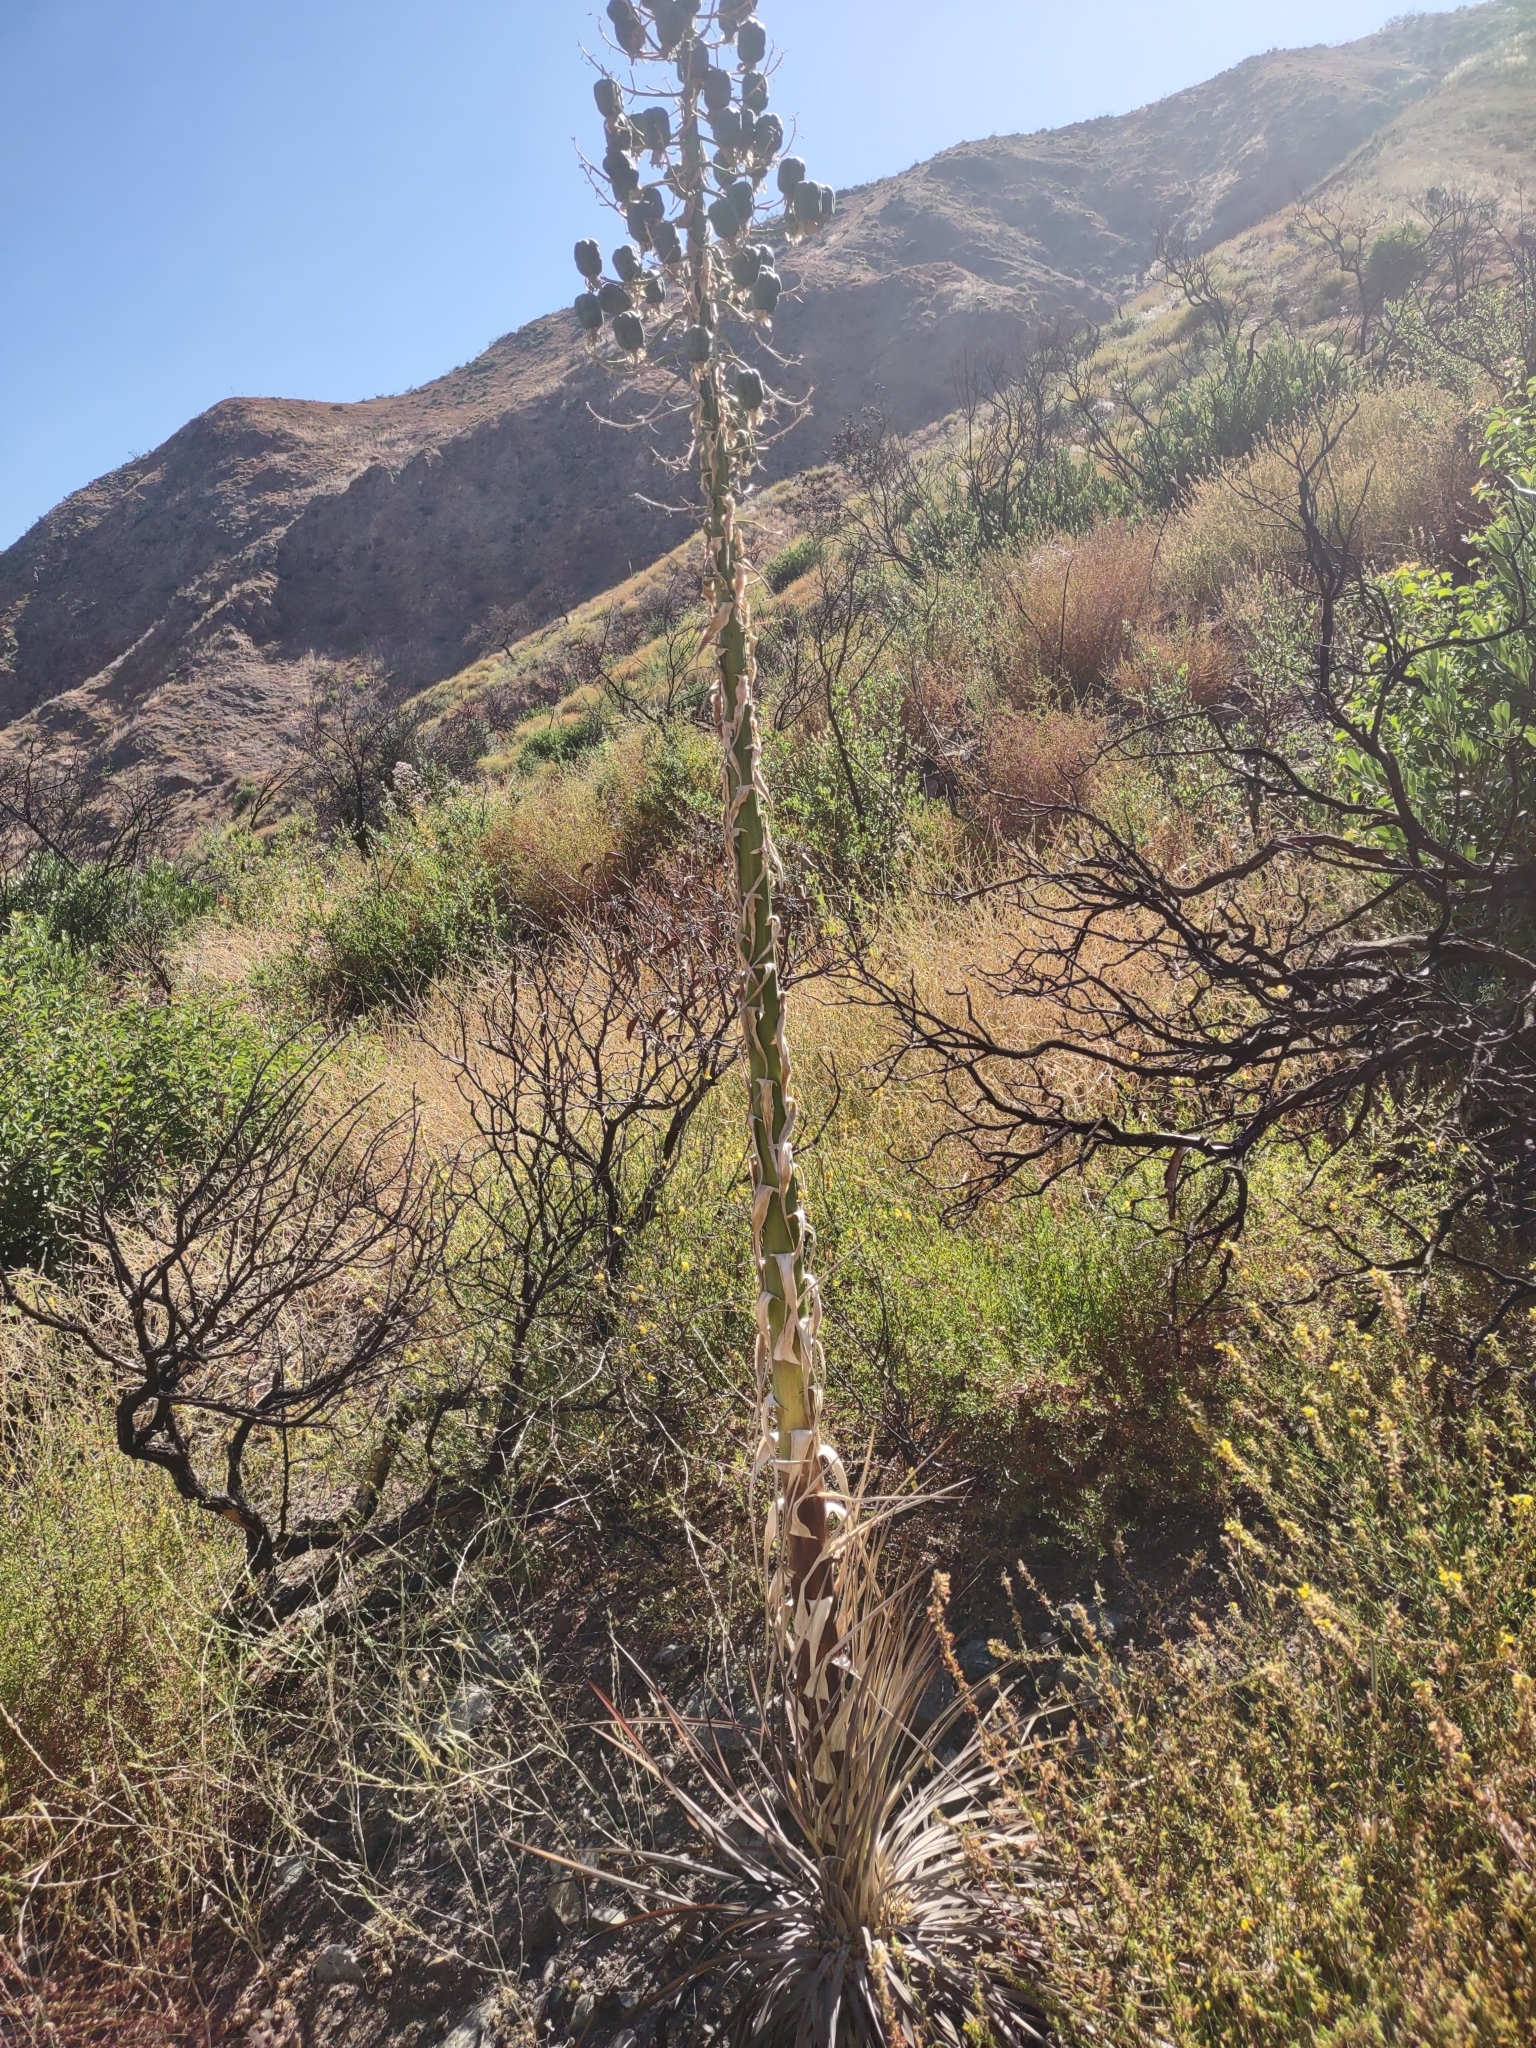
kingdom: Plantae
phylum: Tracheophyta
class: Liliopsida
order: Asparagales
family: Asparagaceae
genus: Hesperoyucca
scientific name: Hesperoyucca whipplei
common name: Our lord's-candle
